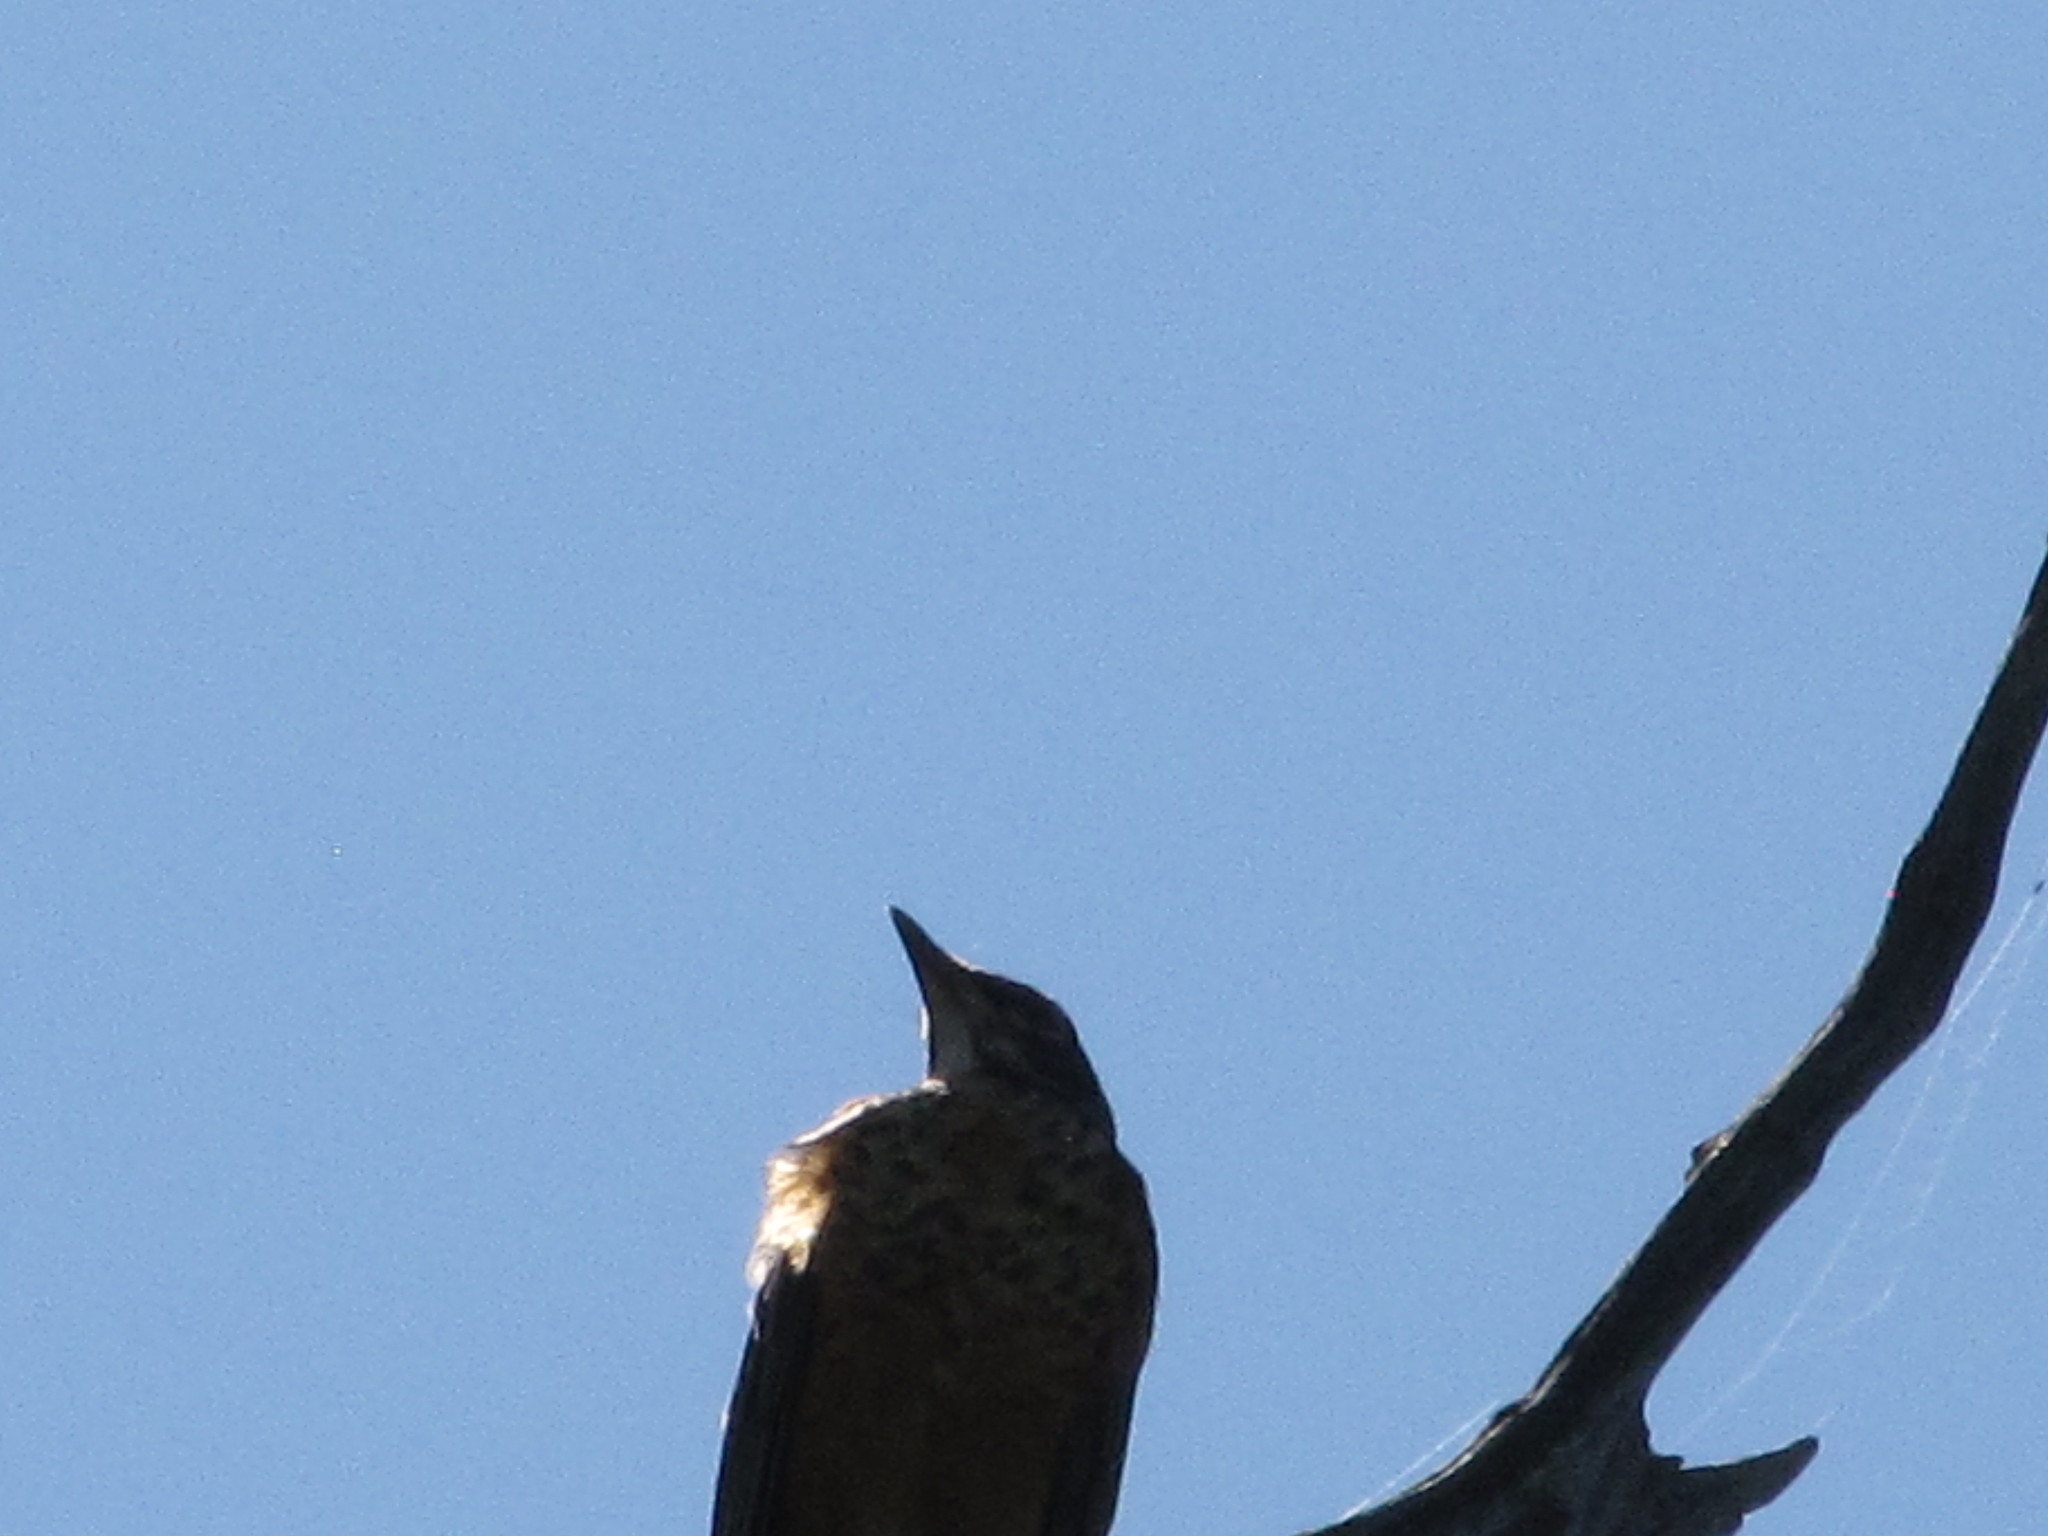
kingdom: Animalia
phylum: Chordata
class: Aves
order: Passeriformes
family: Turdidae
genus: Turdus
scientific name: Turdus migratorius
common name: American robin
